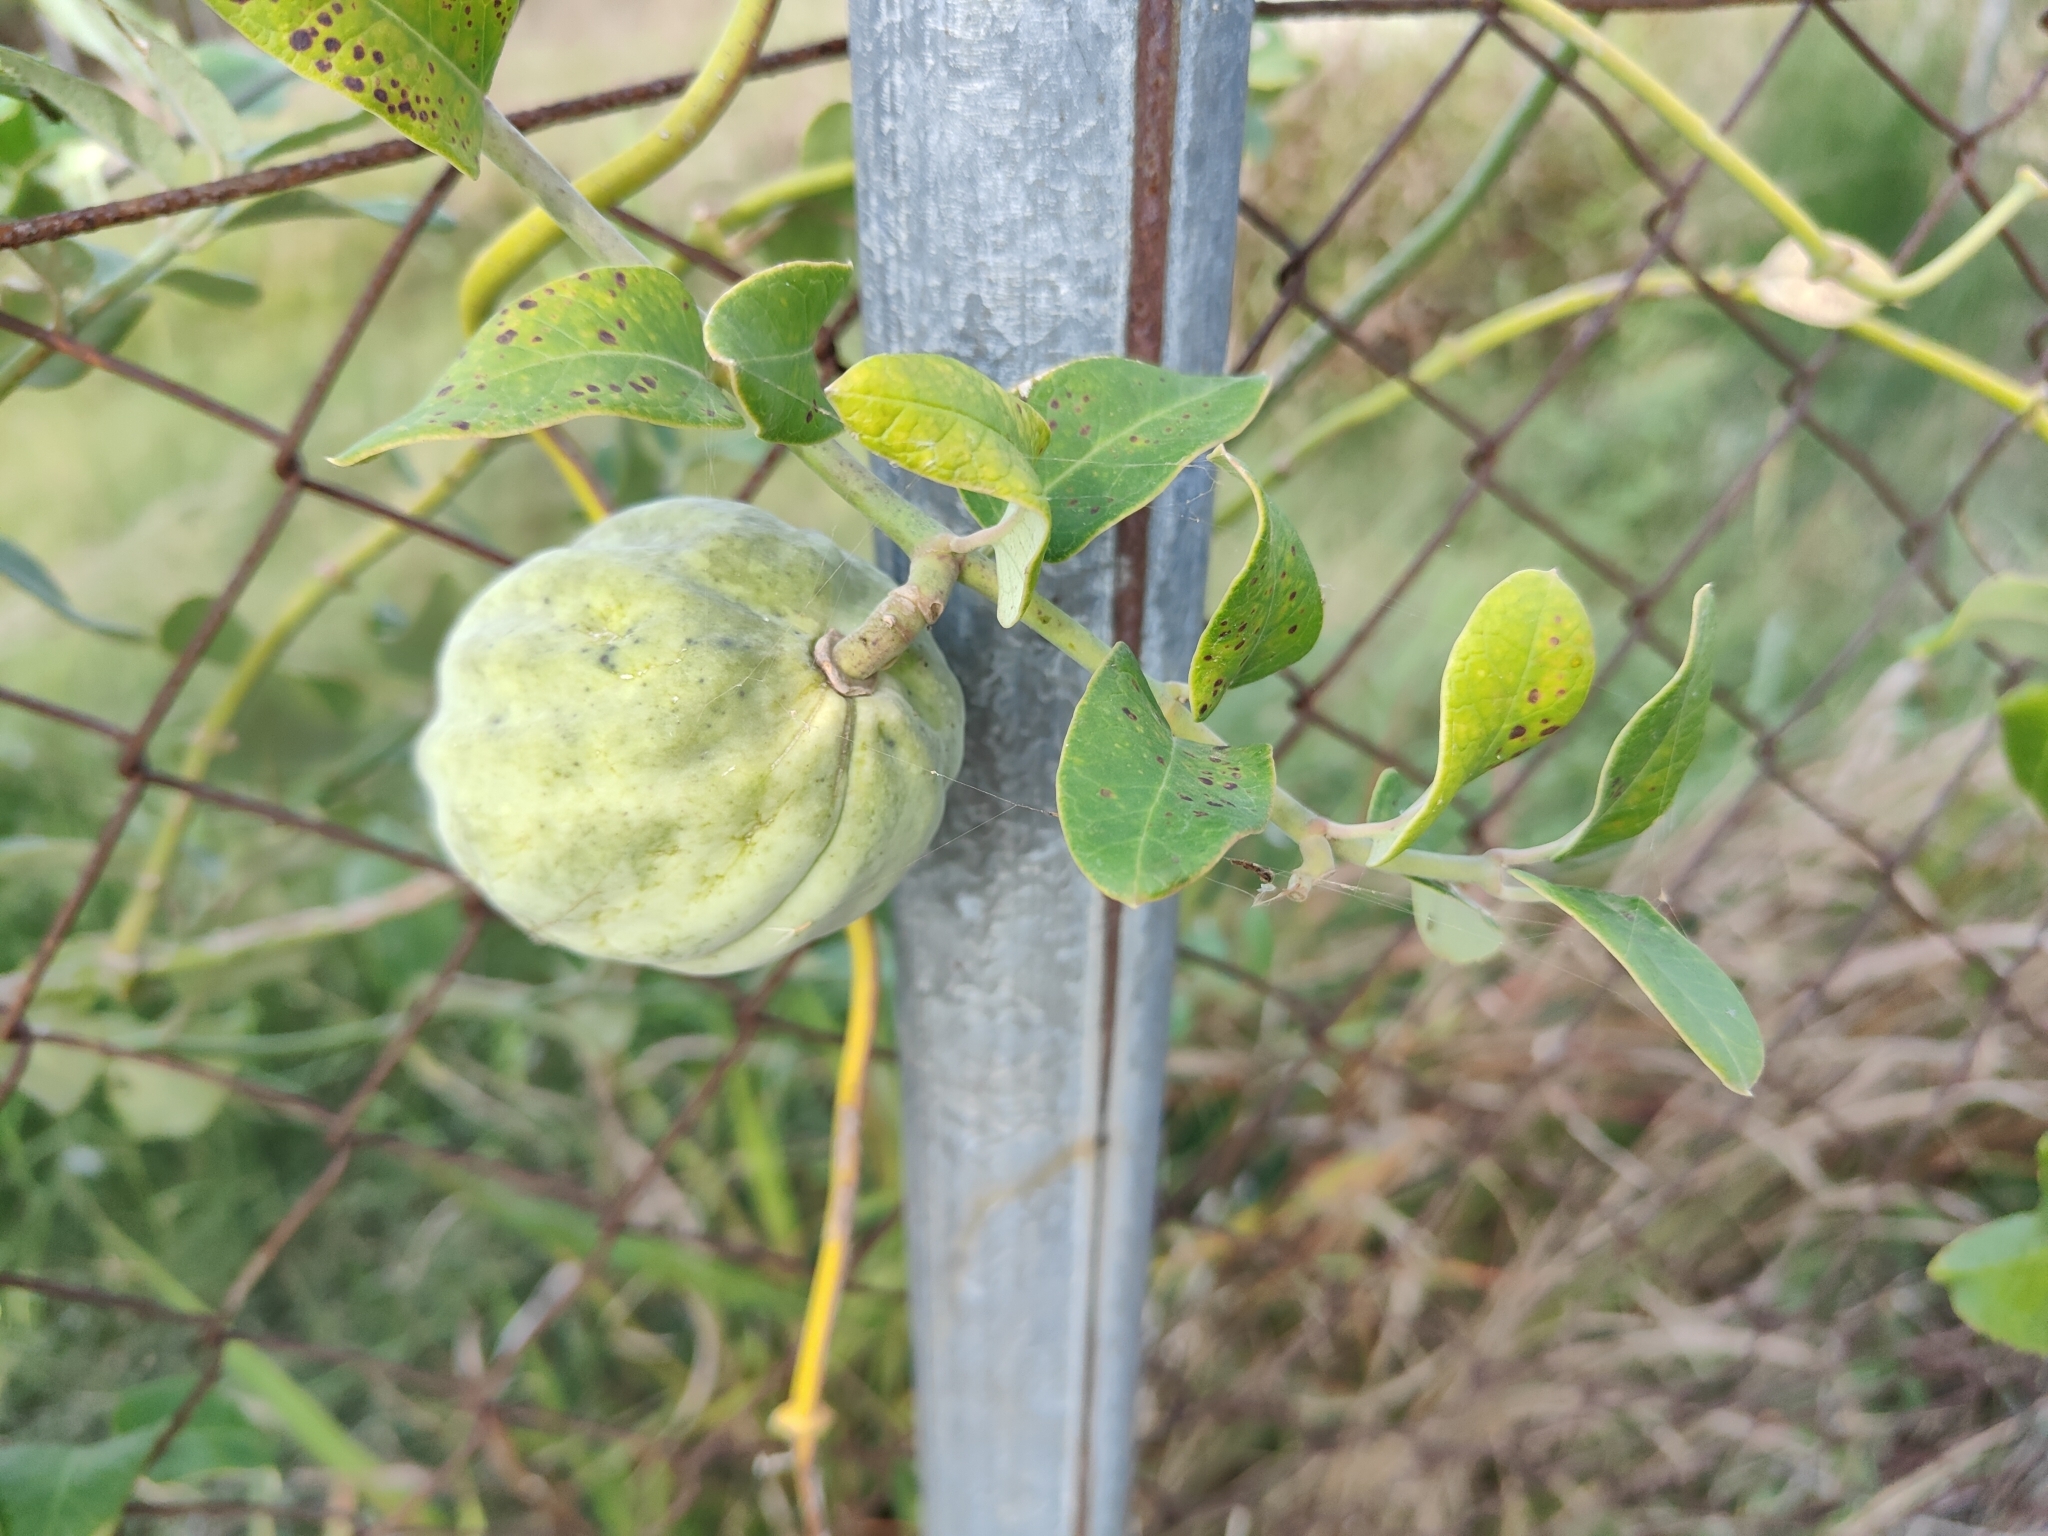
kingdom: Plantae
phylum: Tracheophyta
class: Magnoliopsida
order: Gentianales
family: Apocynaceae
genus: Araujia
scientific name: Araujia sericifera
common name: White bladderflower
